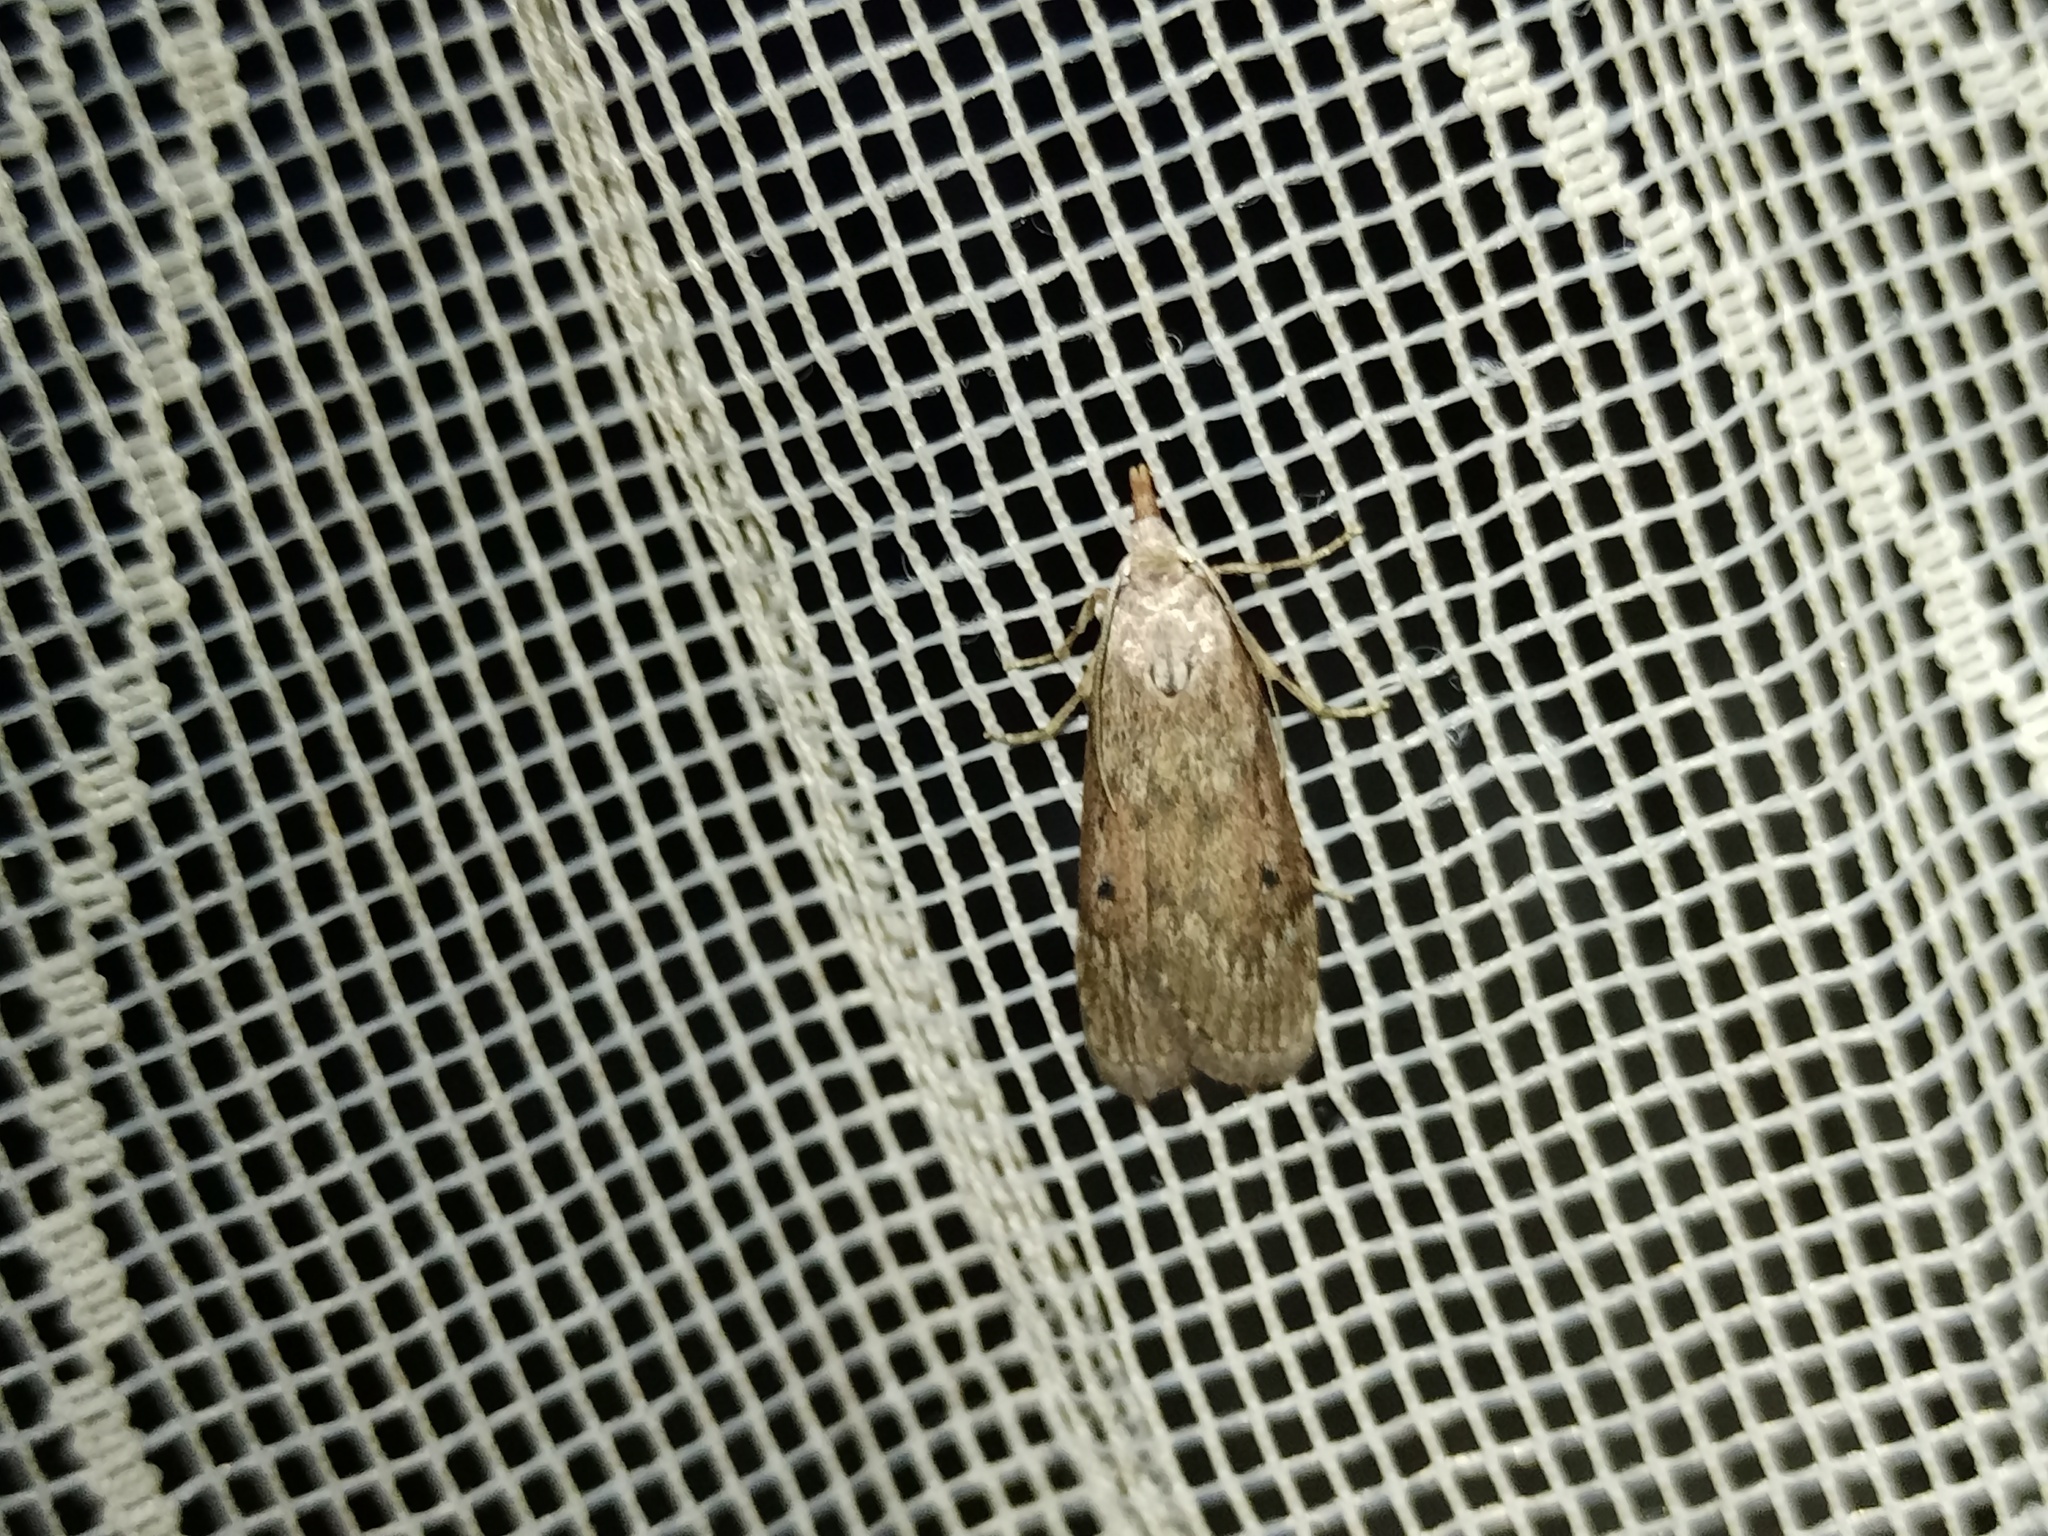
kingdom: Animalia
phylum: Arthropoda
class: Insecta
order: Lepidoptera
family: Pyralidae
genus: Aphomia
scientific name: Aphomia sociella
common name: Bee moth
